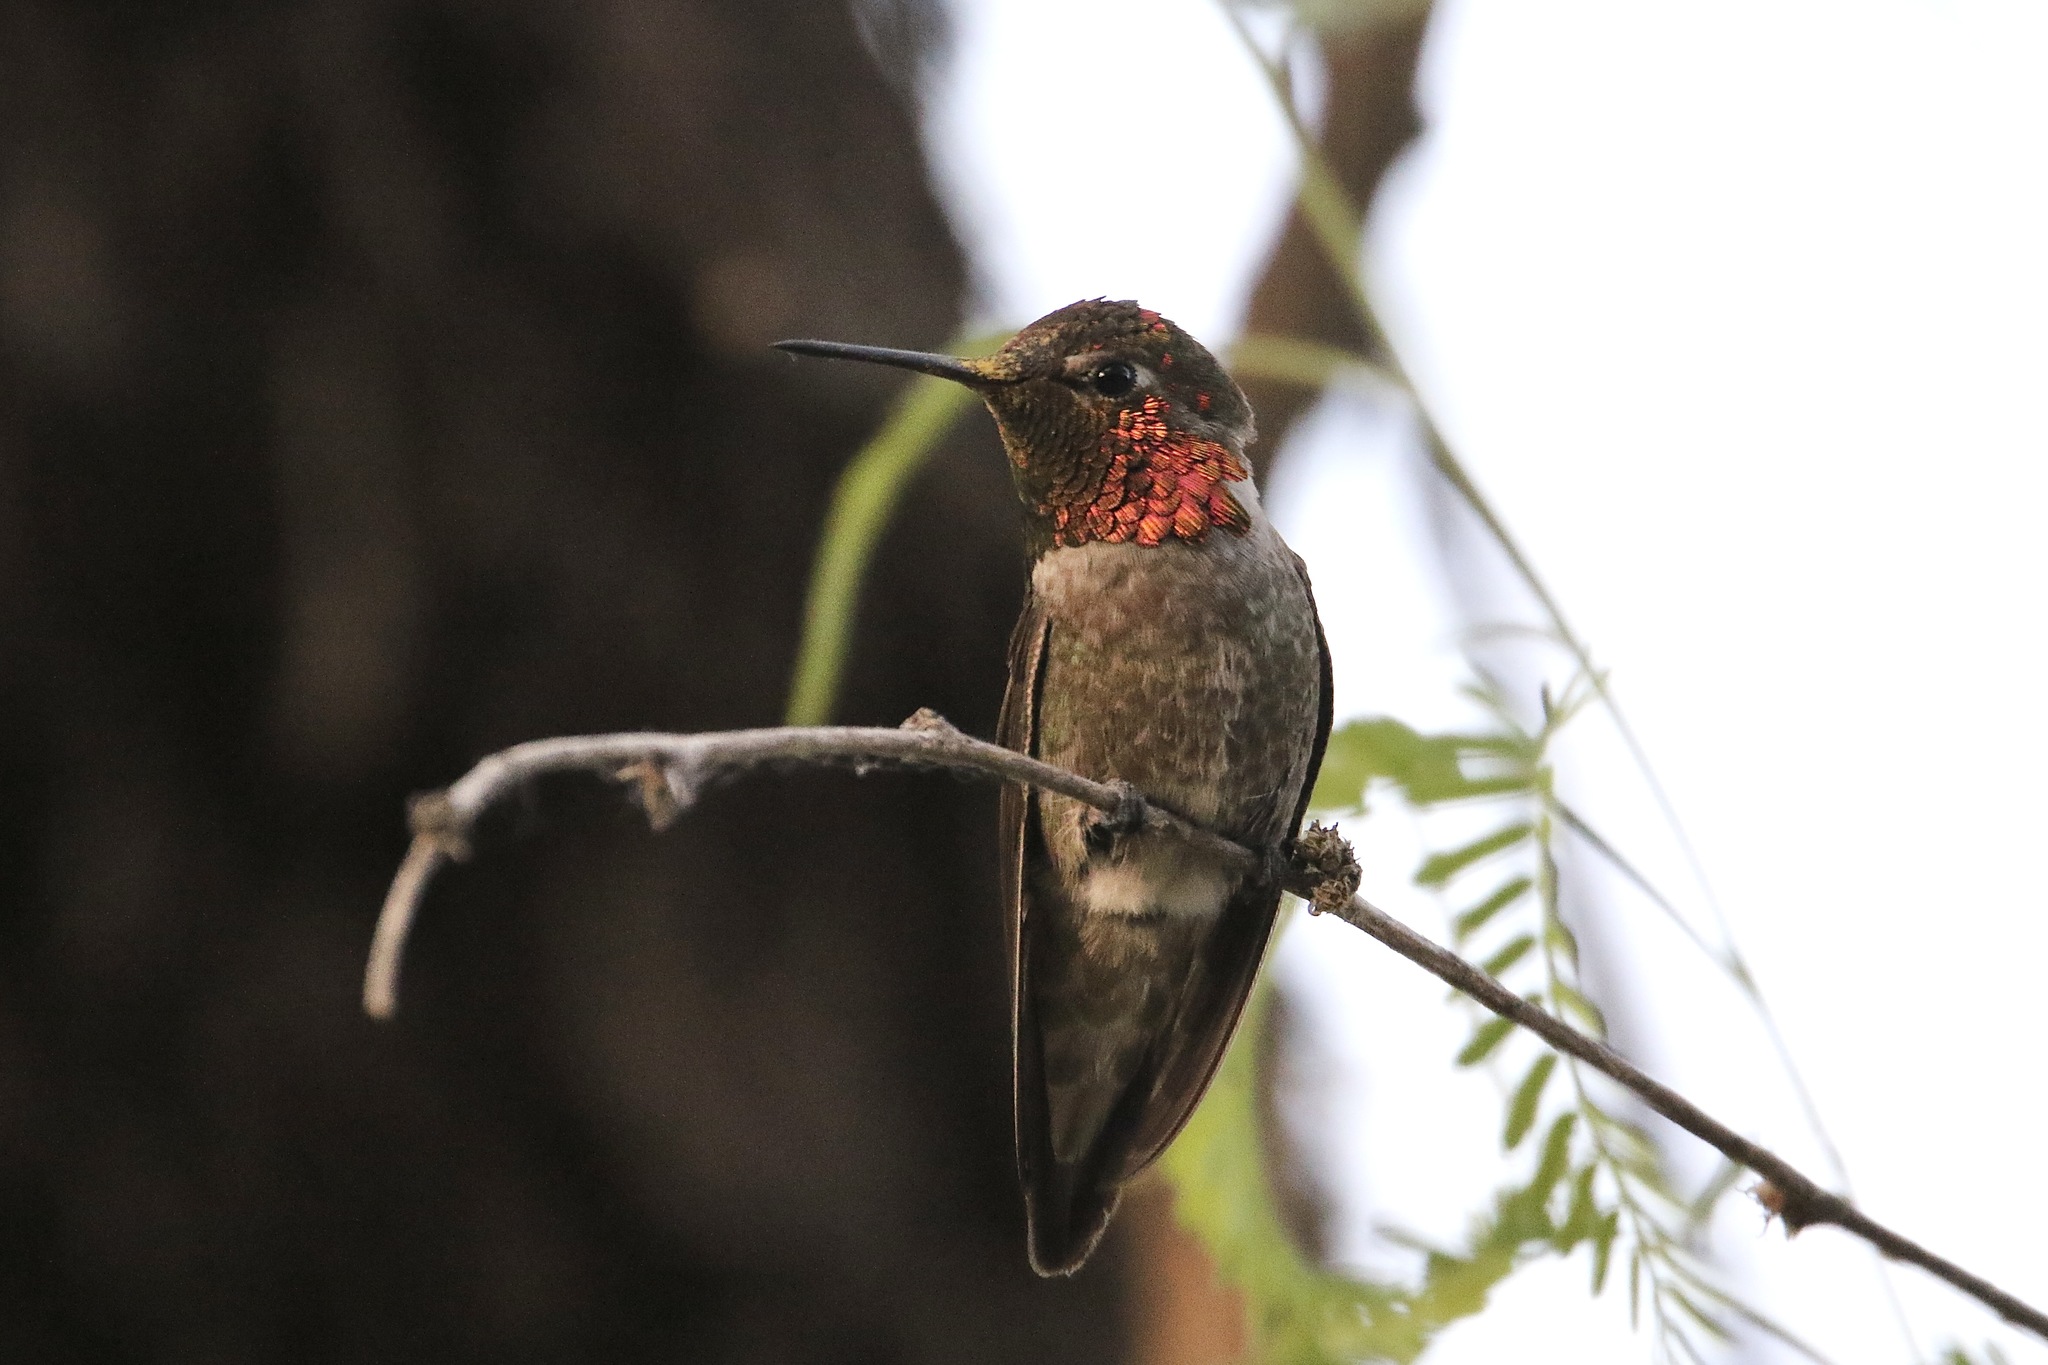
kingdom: Animalia
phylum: Chordata
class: Aves
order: Apodiformes
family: Trochilidae
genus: Calypte
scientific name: Calypte anna
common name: Anna's hummingbird
